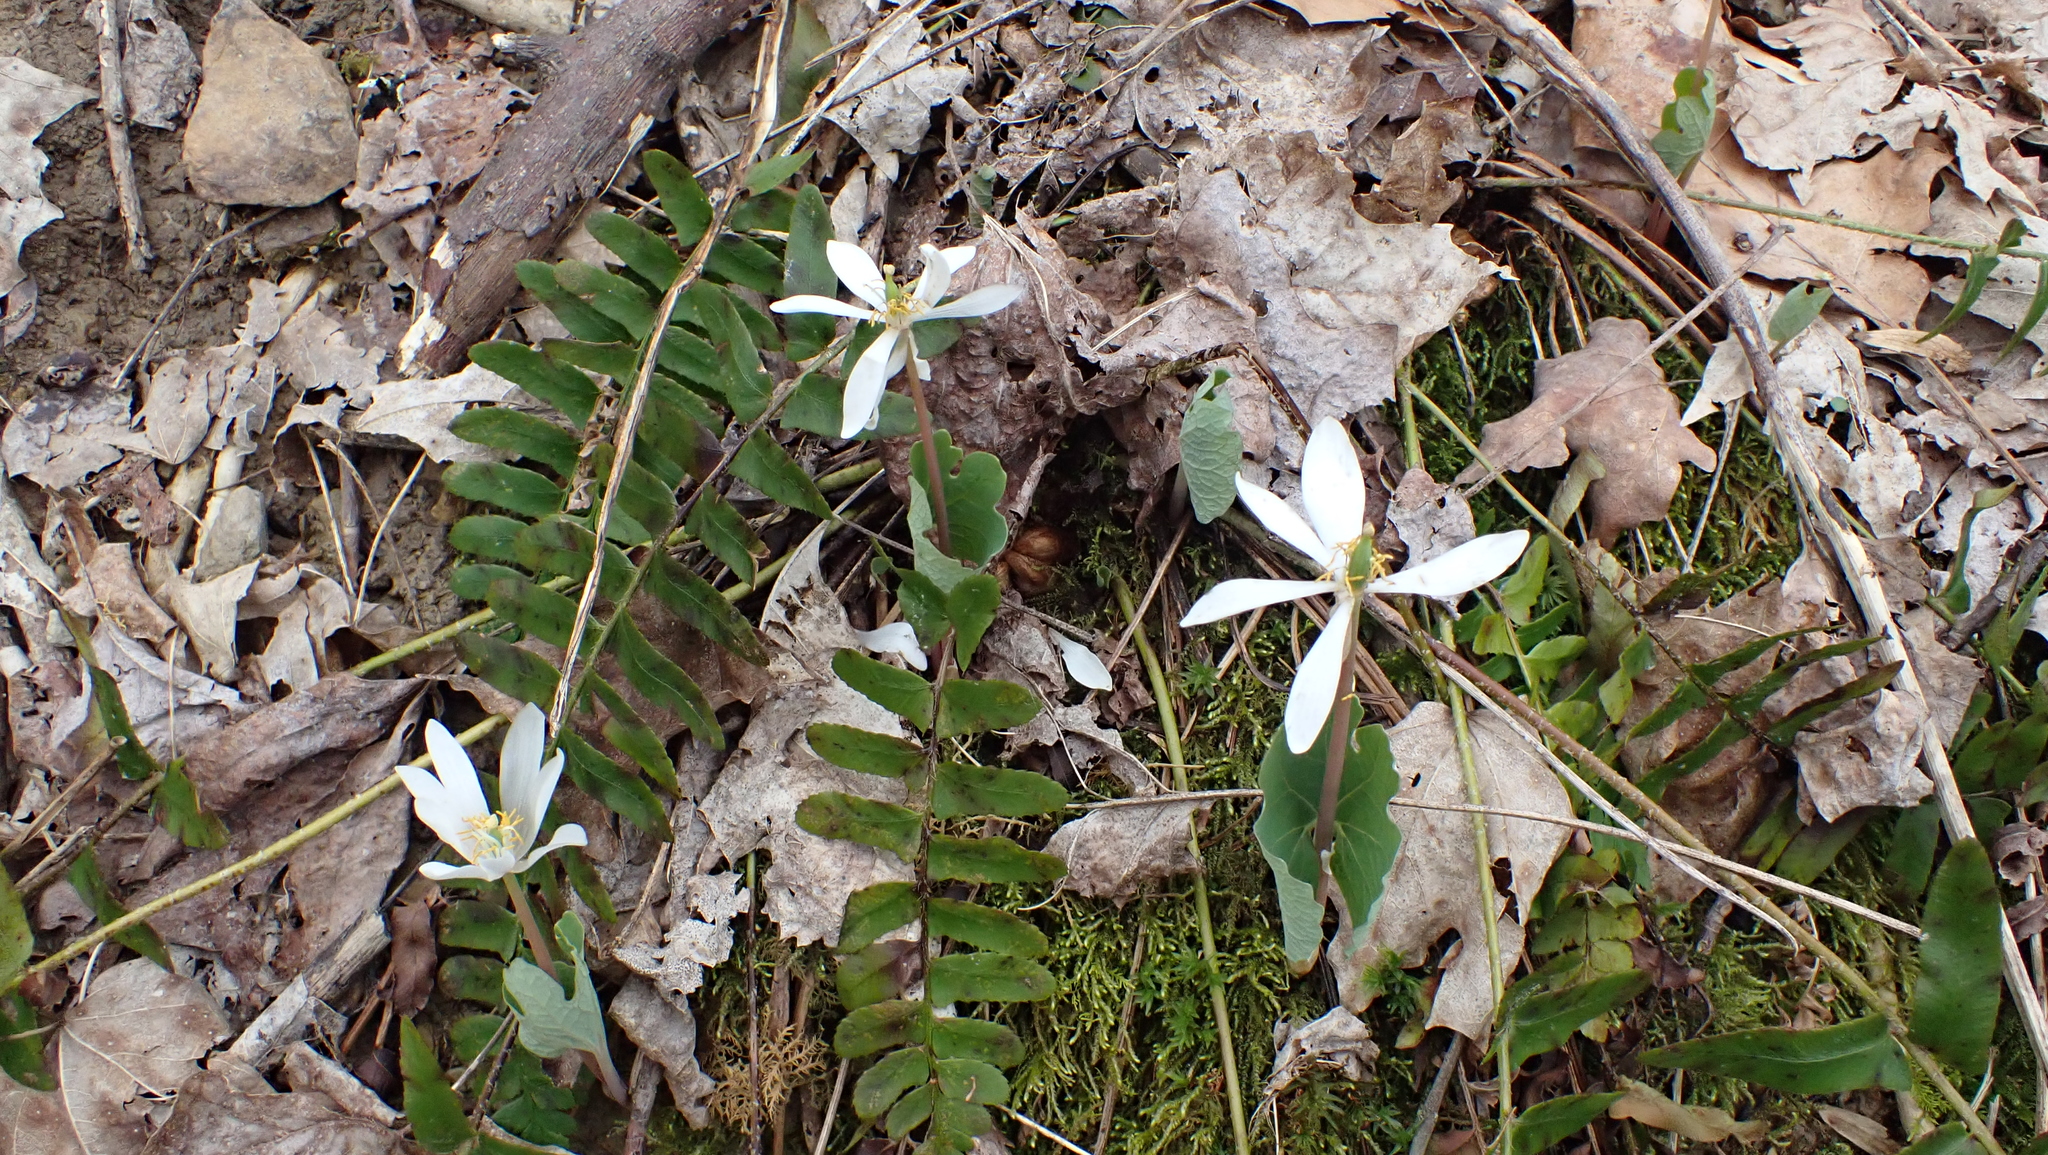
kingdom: Plantae
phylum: Tracheophyta
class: Magnoliopsida
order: Ranunculales
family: Papaveraceae
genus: Sanguinaria
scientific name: Sanguinaria canadensis
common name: Bloodroot
